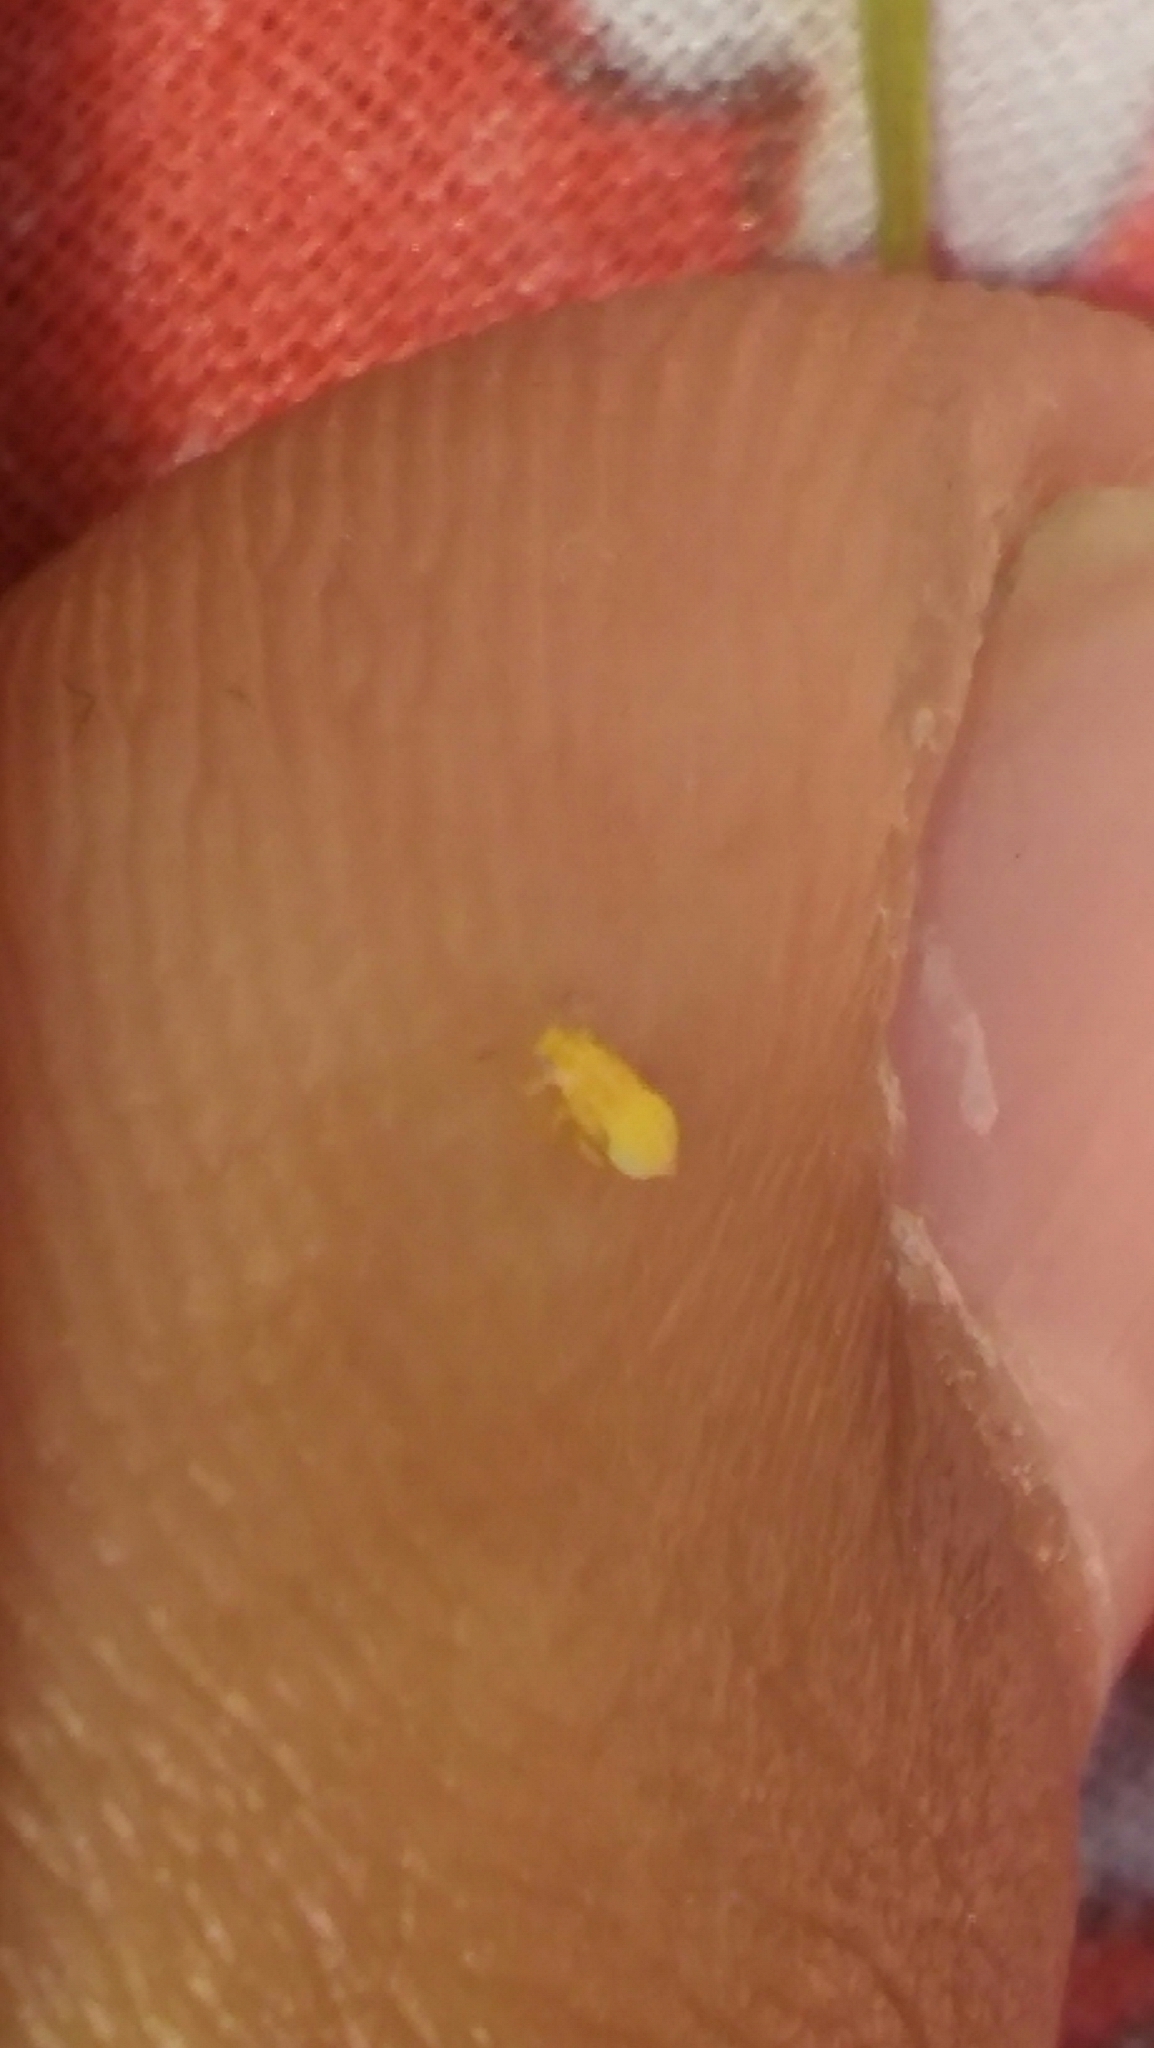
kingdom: Animalia
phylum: Arthropoda
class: Insecta
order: Hemiptera
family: Aphalaridae
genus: Glycaspis
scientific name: Glycaspis brimblecombei
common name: Red gum lerp psyllid
